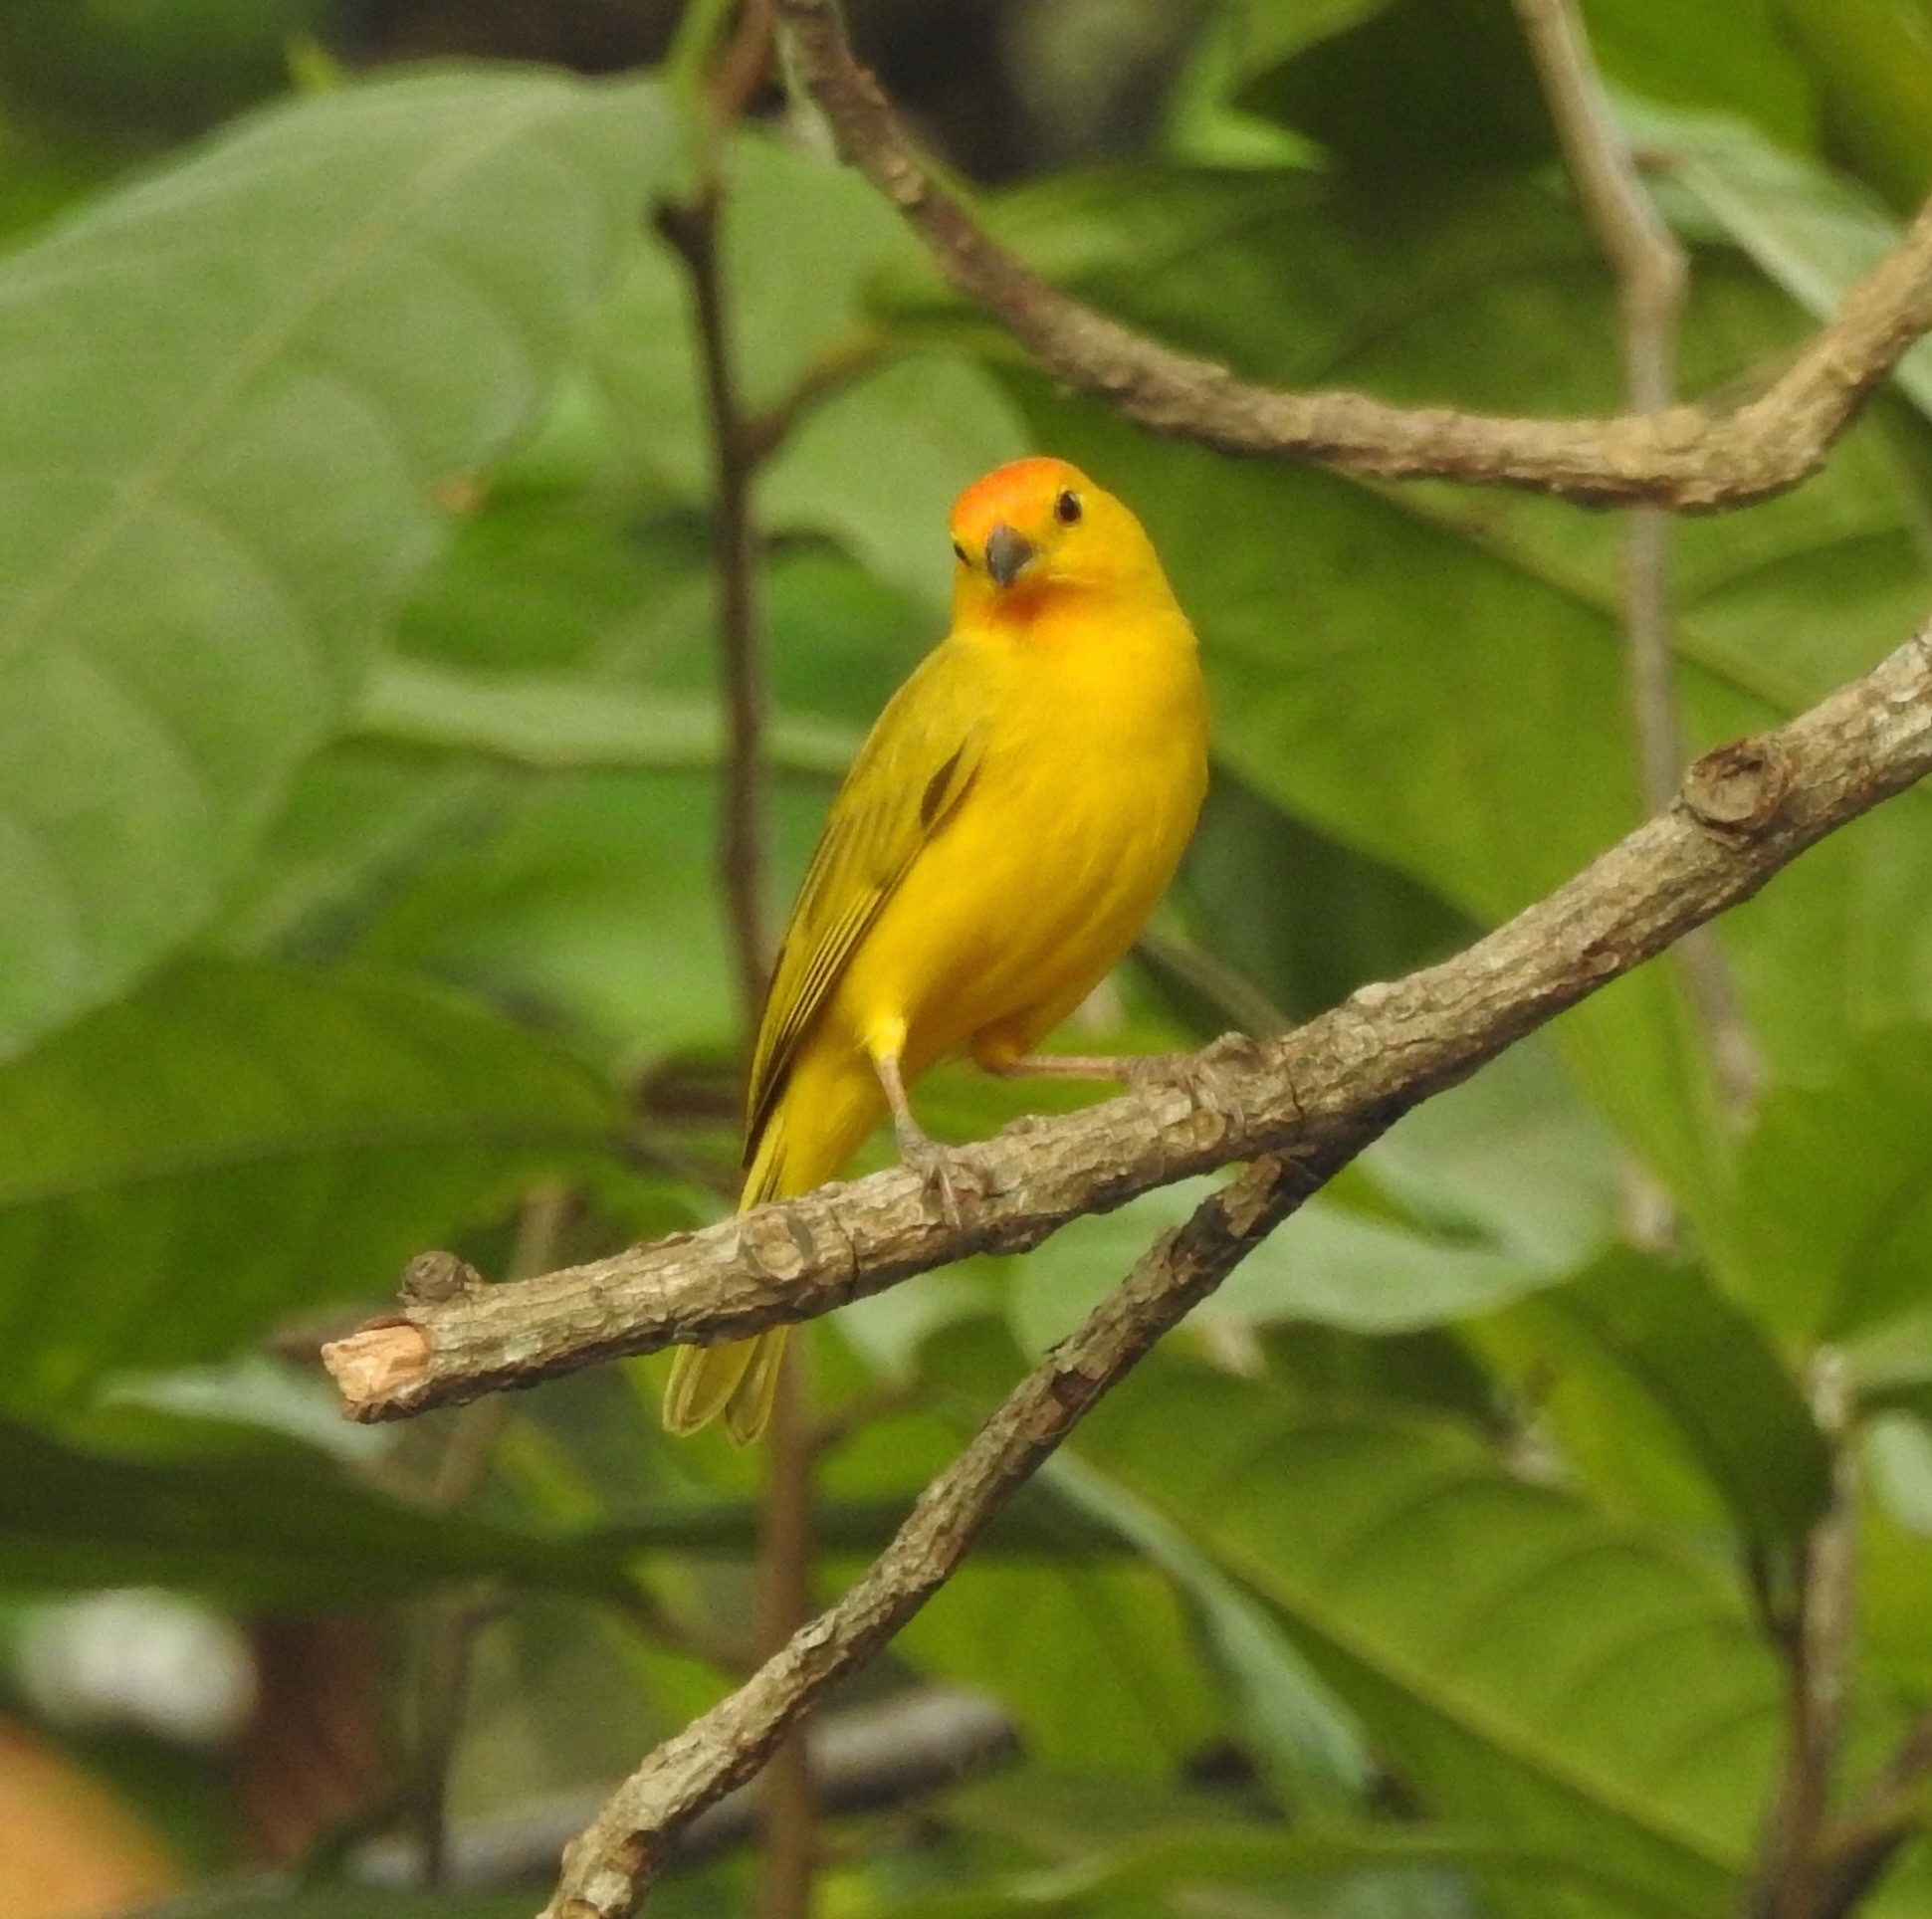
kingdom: Animalia
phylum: Chordata
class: Aves
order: Passeriformes
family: Thraupidae
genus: Sicalis
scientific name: Sicalis flaveola
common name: Saffron finch
